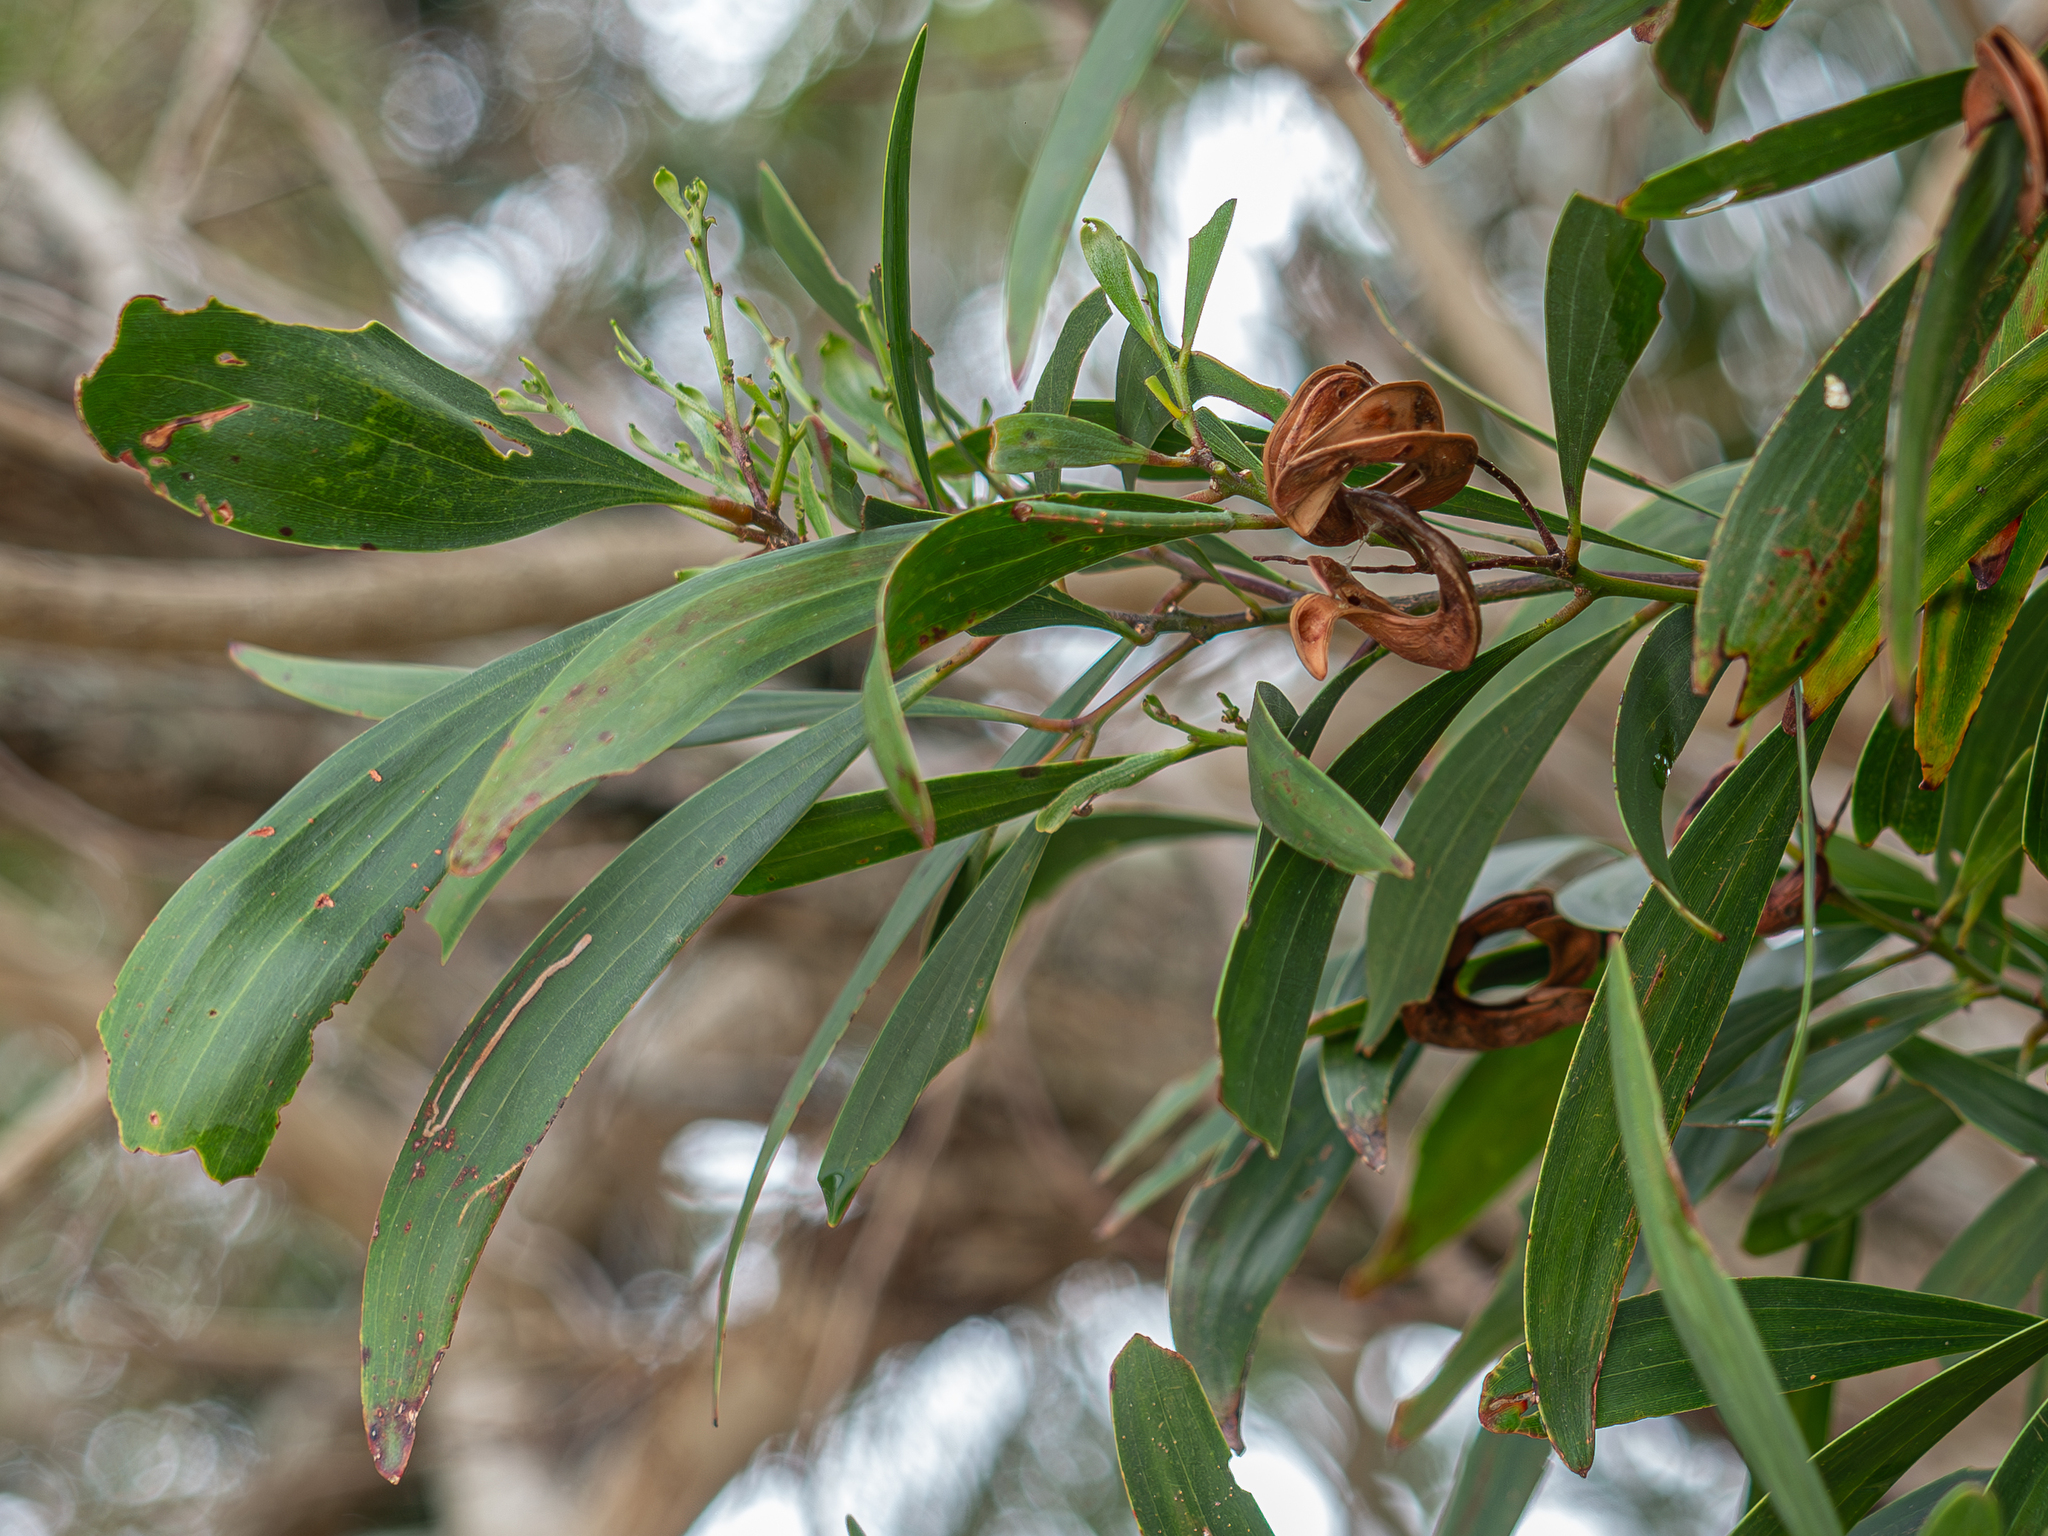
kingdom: Plantae
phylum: Tracheophyta
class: Magnoliopsida
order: Fabales
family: Fabaceae
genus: Acacia
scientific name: Acacia spirorbis
